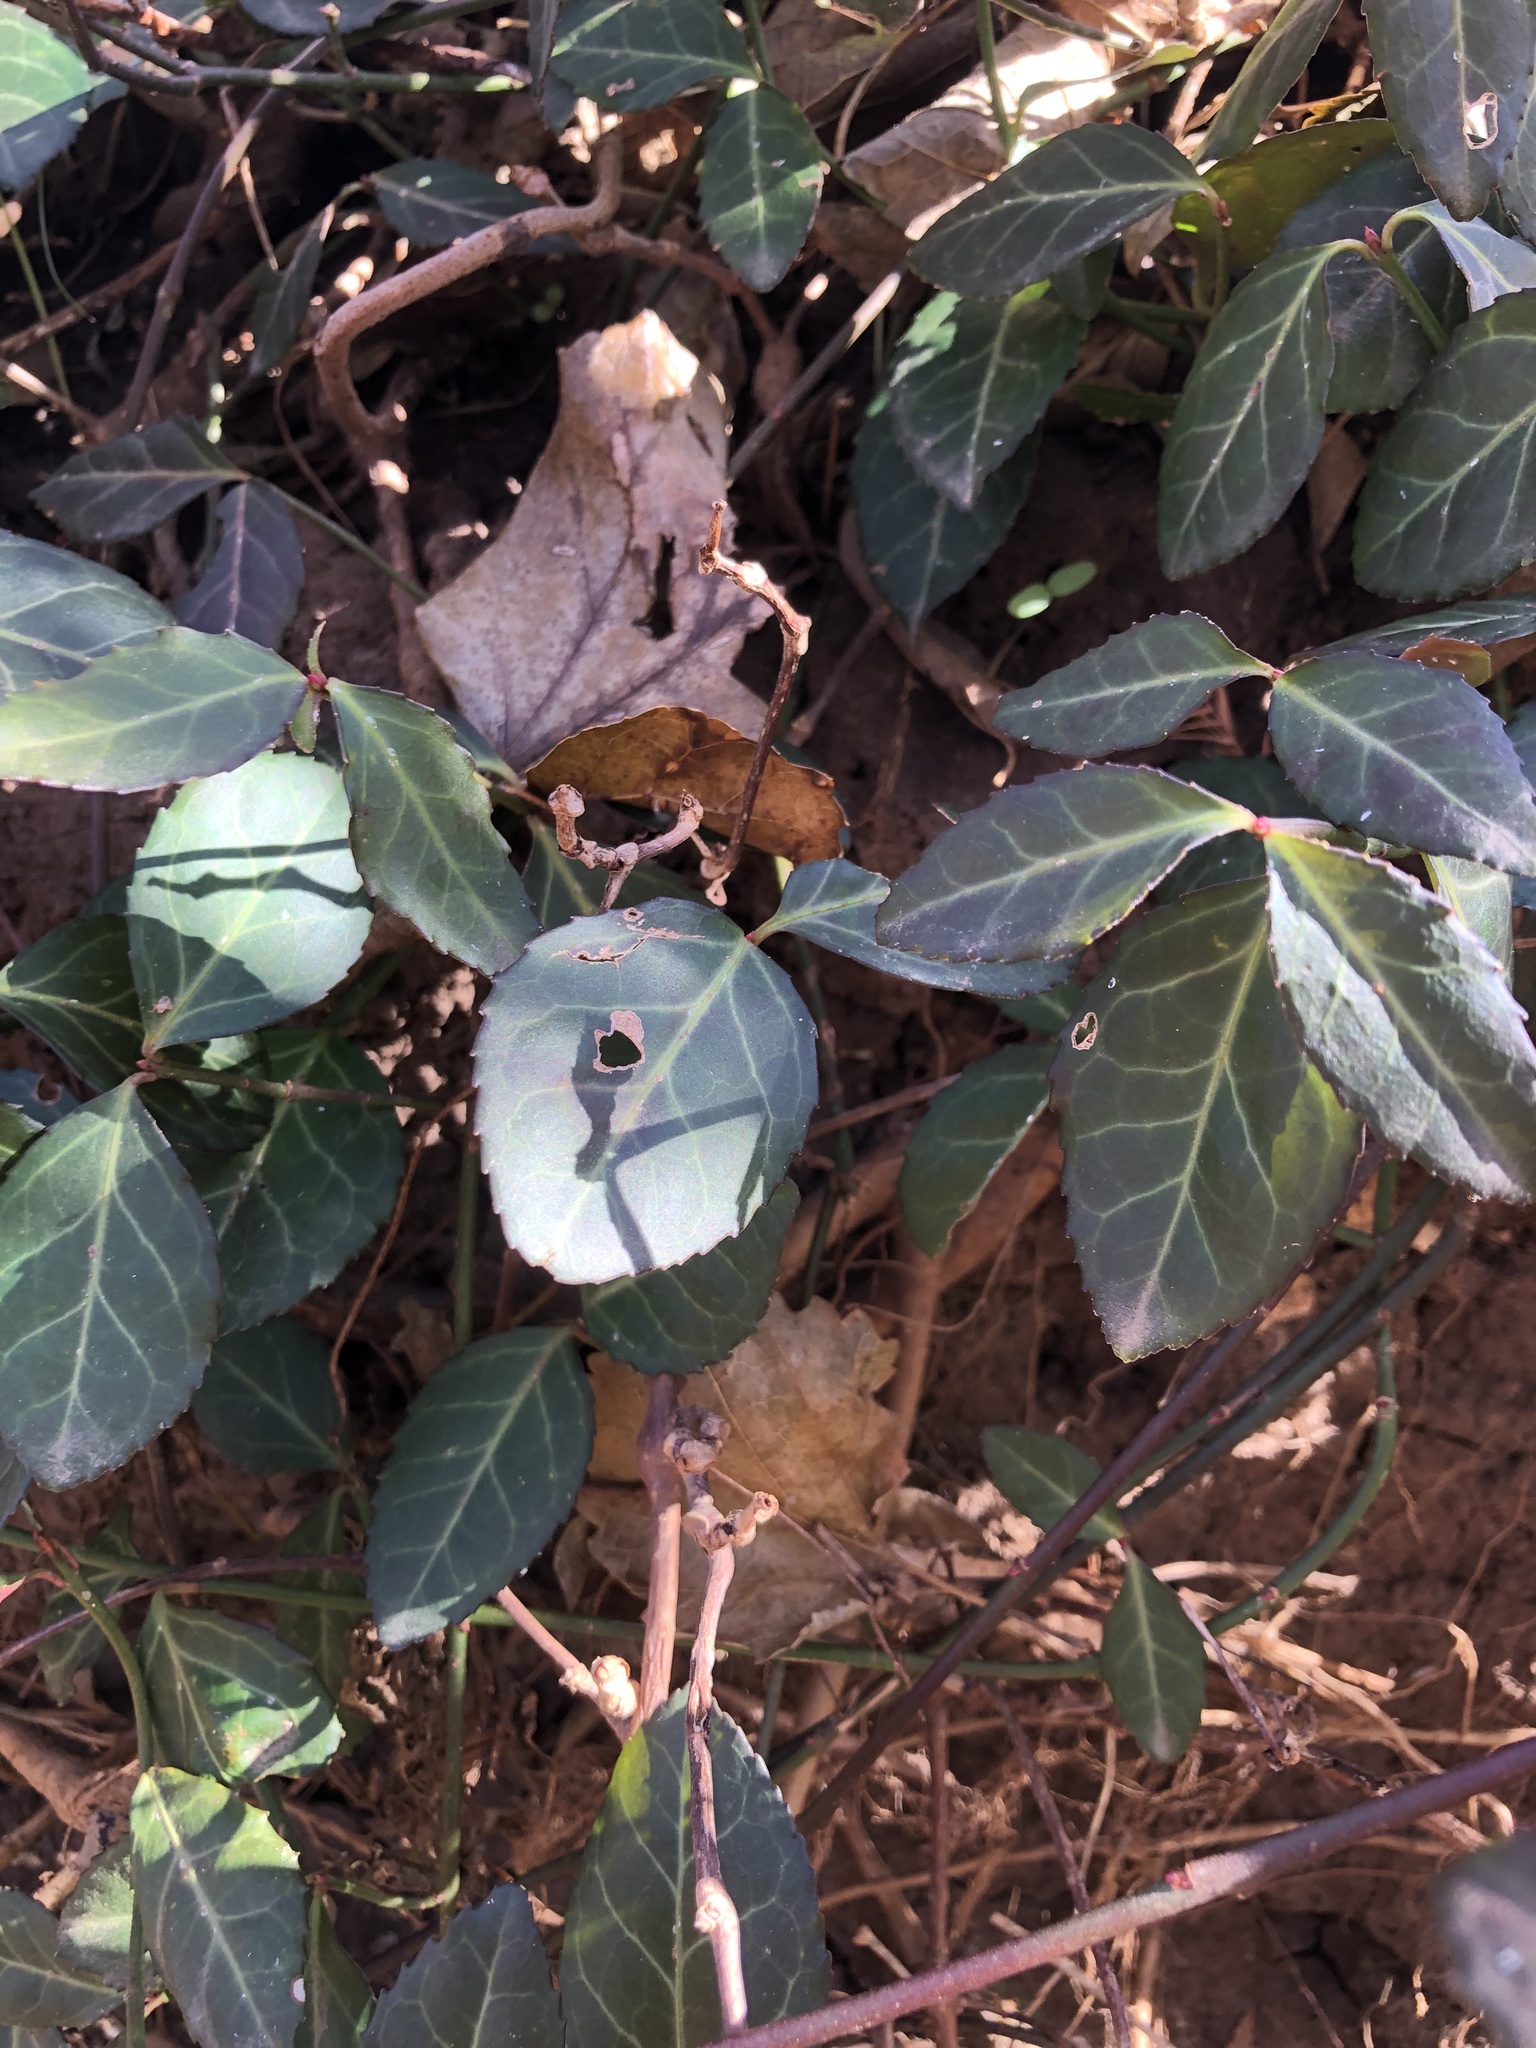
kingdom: Plantae
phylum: Tracheophyta
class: Magnoliopsida
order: Celastrales
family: Celastraceae
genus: Euonymus
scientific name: Euonymus fortunei
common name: Climbing euonymus
